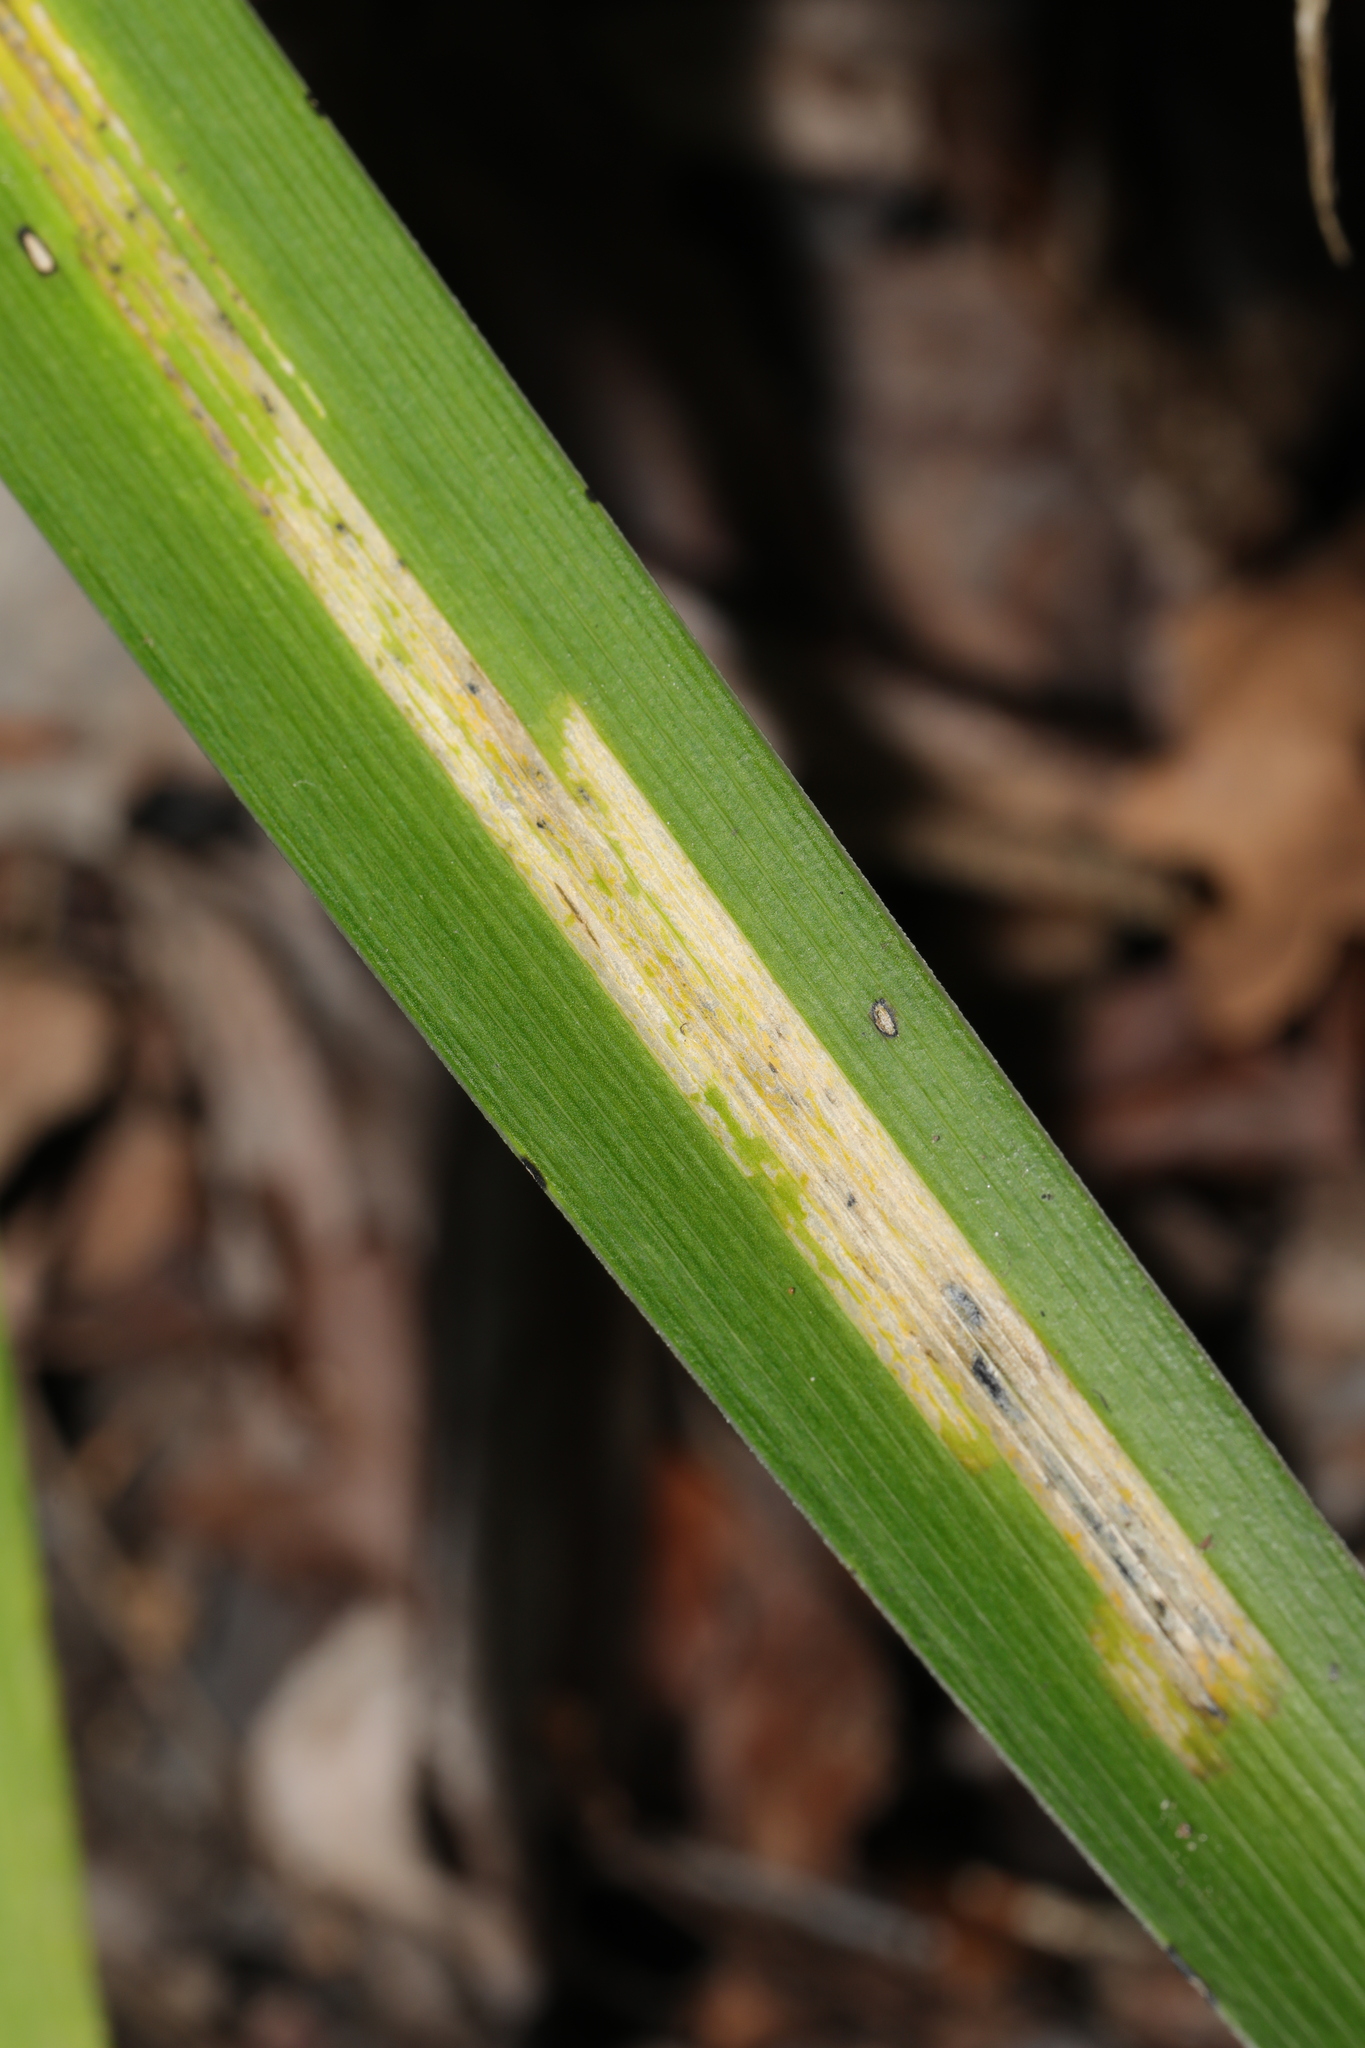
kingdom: Animalia
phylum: Arthropoda
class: Insecta
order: Diptera
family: Agromyzidae
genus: Phytobia
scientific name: Phytobia iridis
